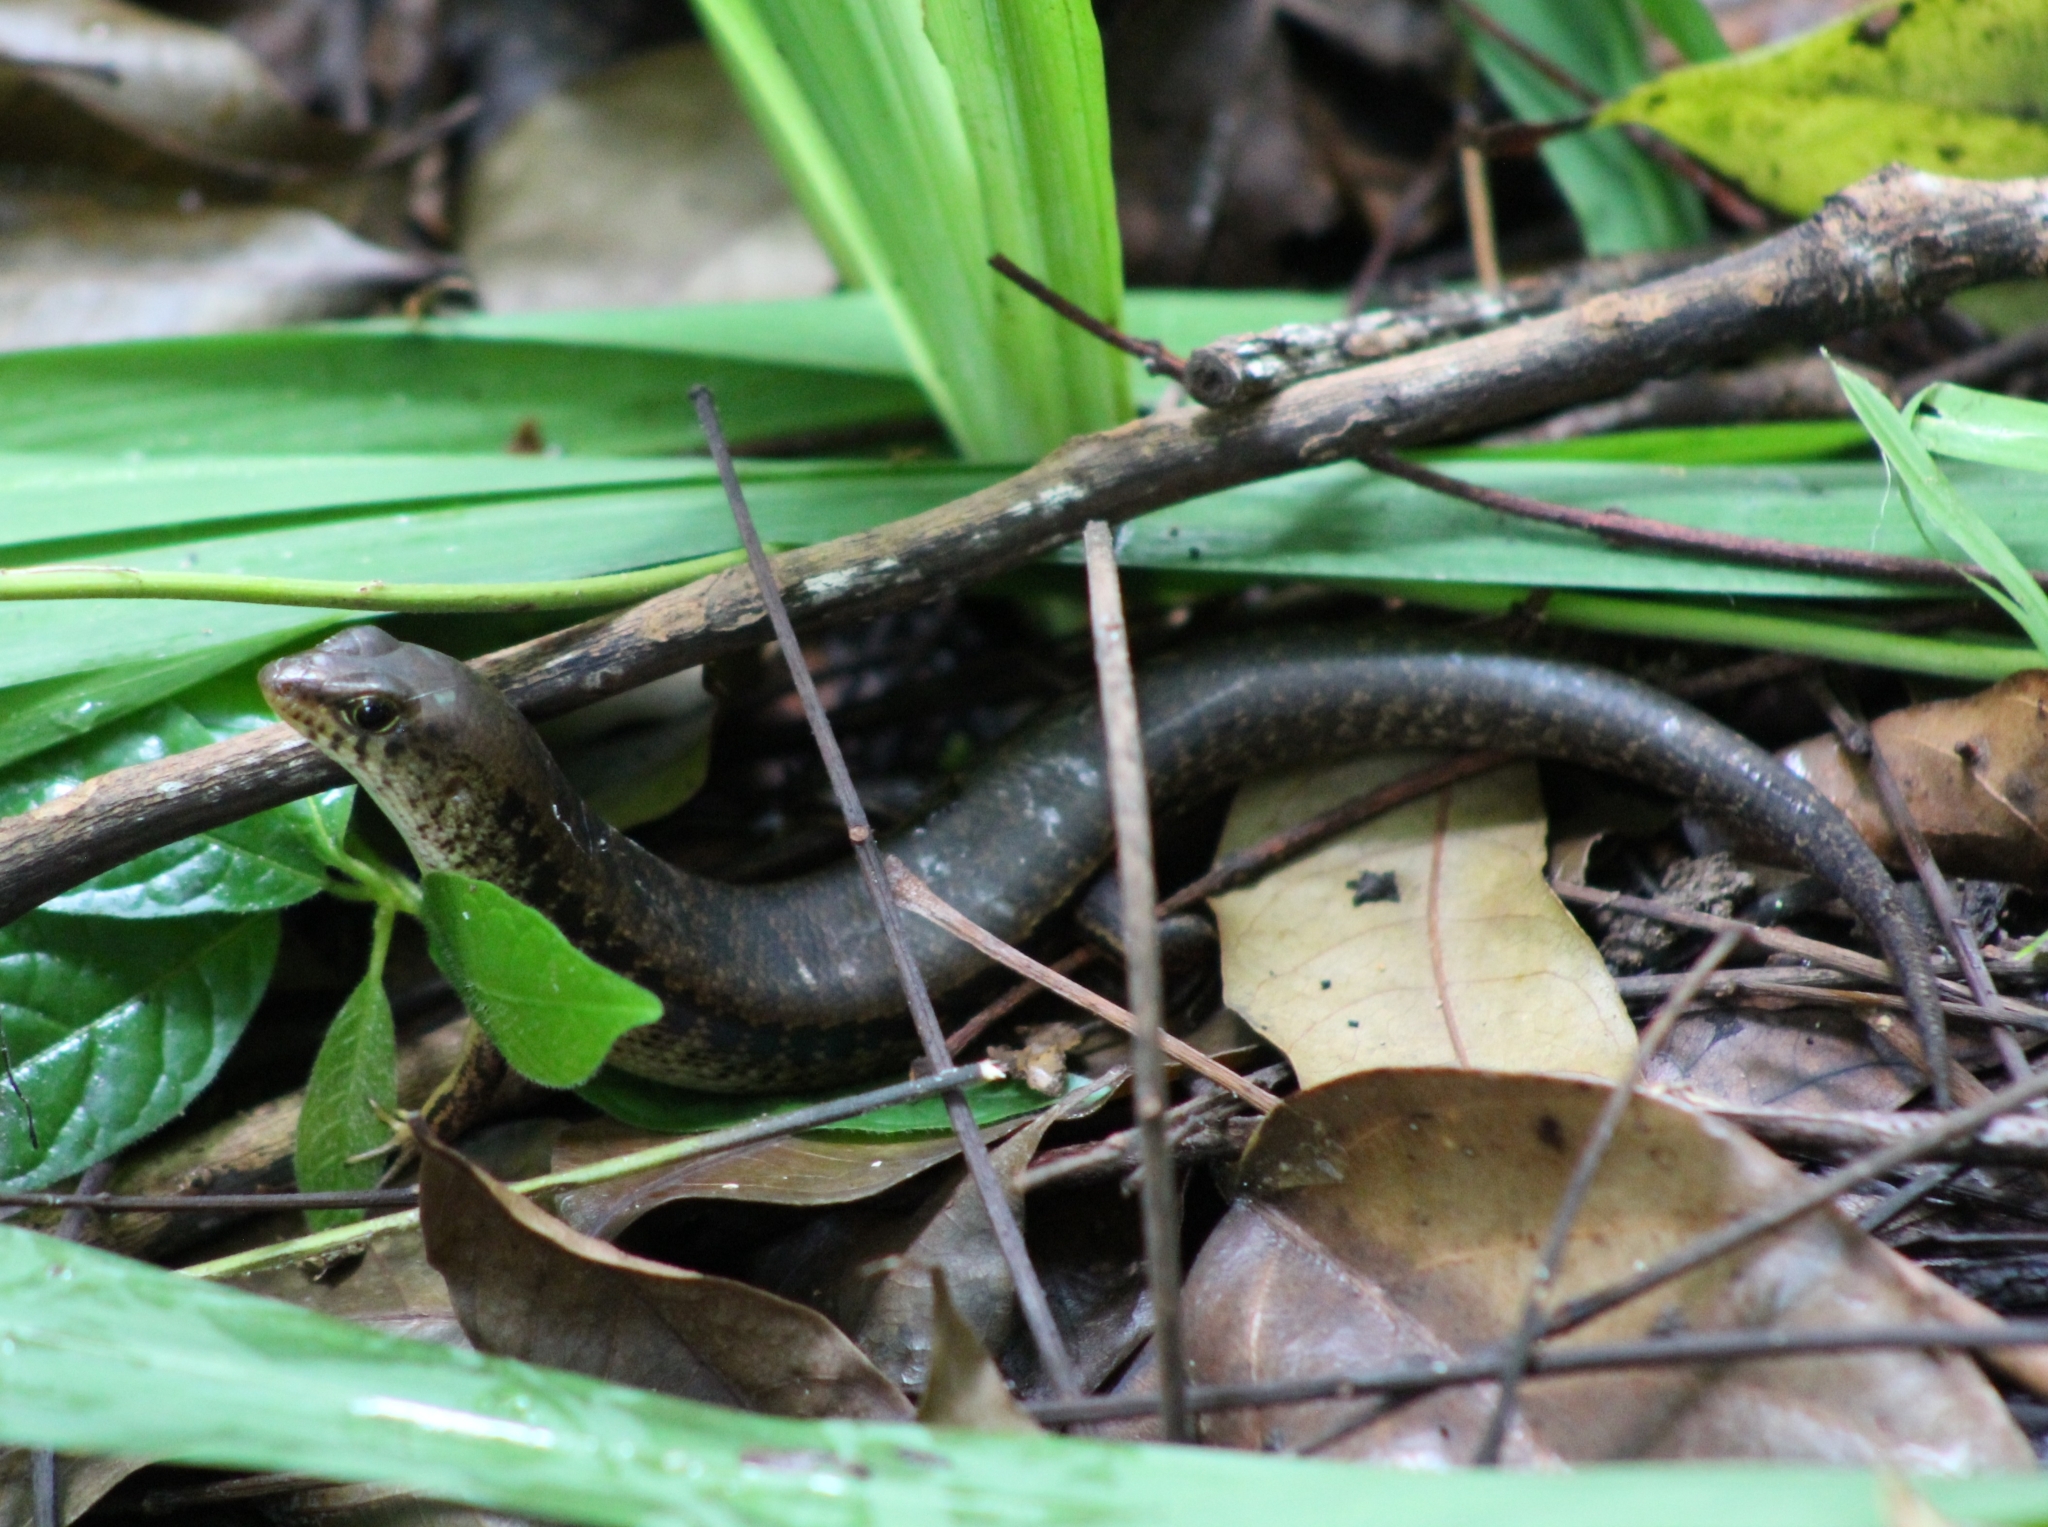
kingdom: Animalia
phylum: Chordata
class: Squamata
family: Scincidae
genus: Pinoyscincus
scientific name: Pinoyscincus abdictus
